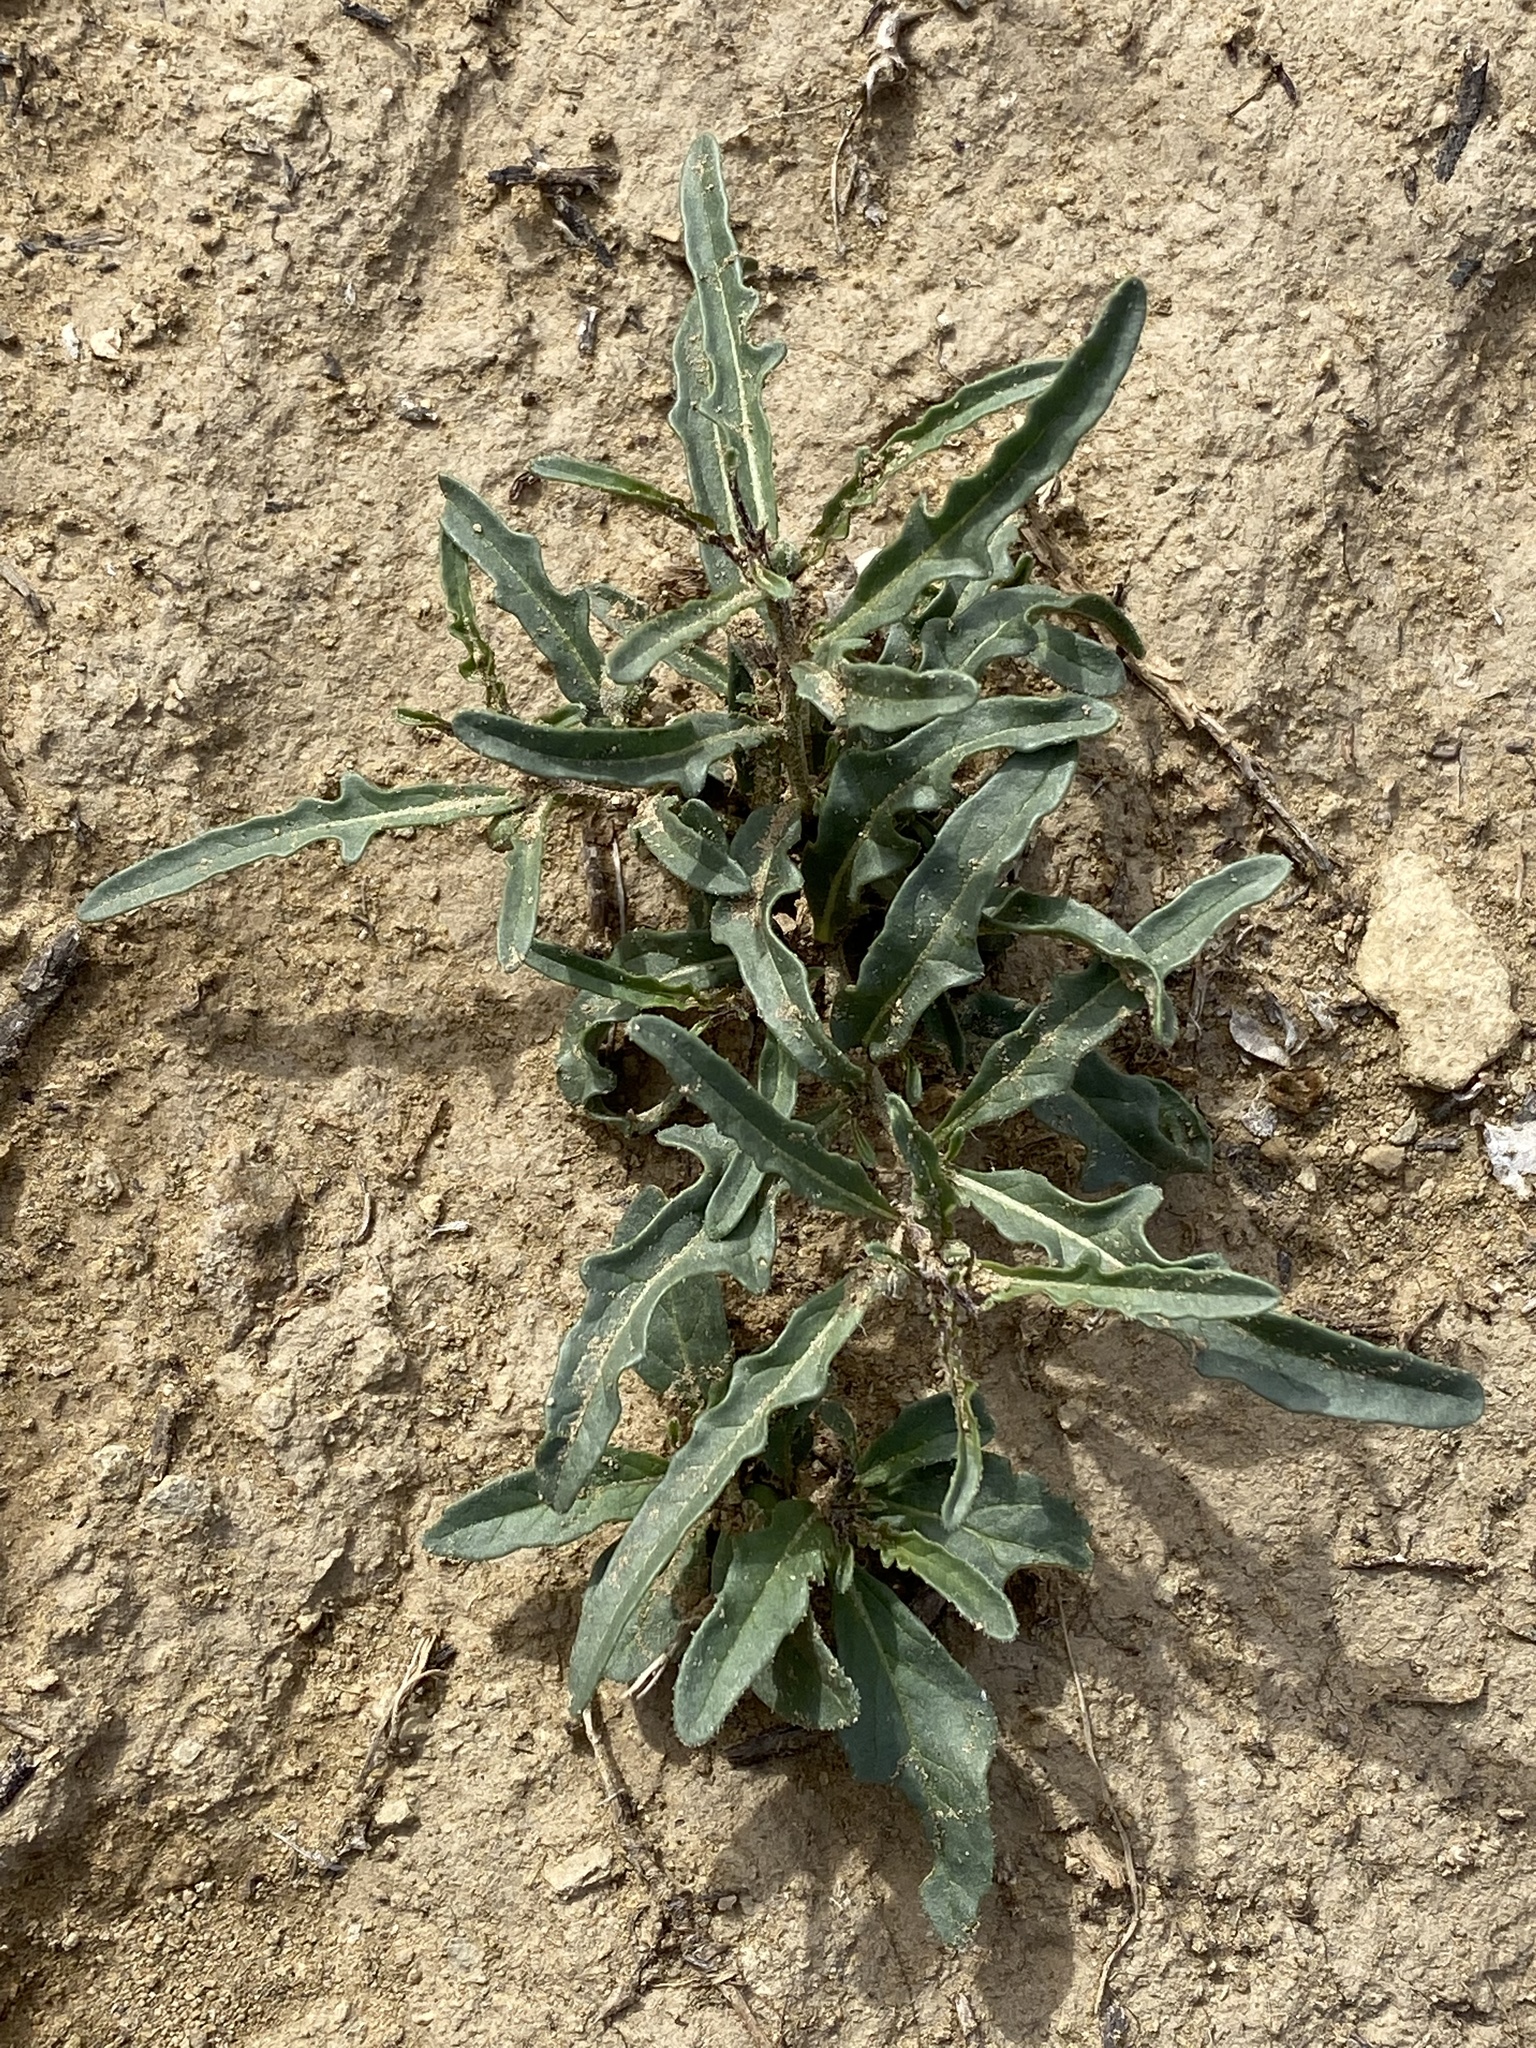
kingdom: Plantae
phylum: Tracheophyta
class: Magnoliopsida
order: Solanales
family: Solanaceae
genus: Chamaesaracha
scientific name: Chamaesaracha coronopus
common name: Smooth chamaesaracha
